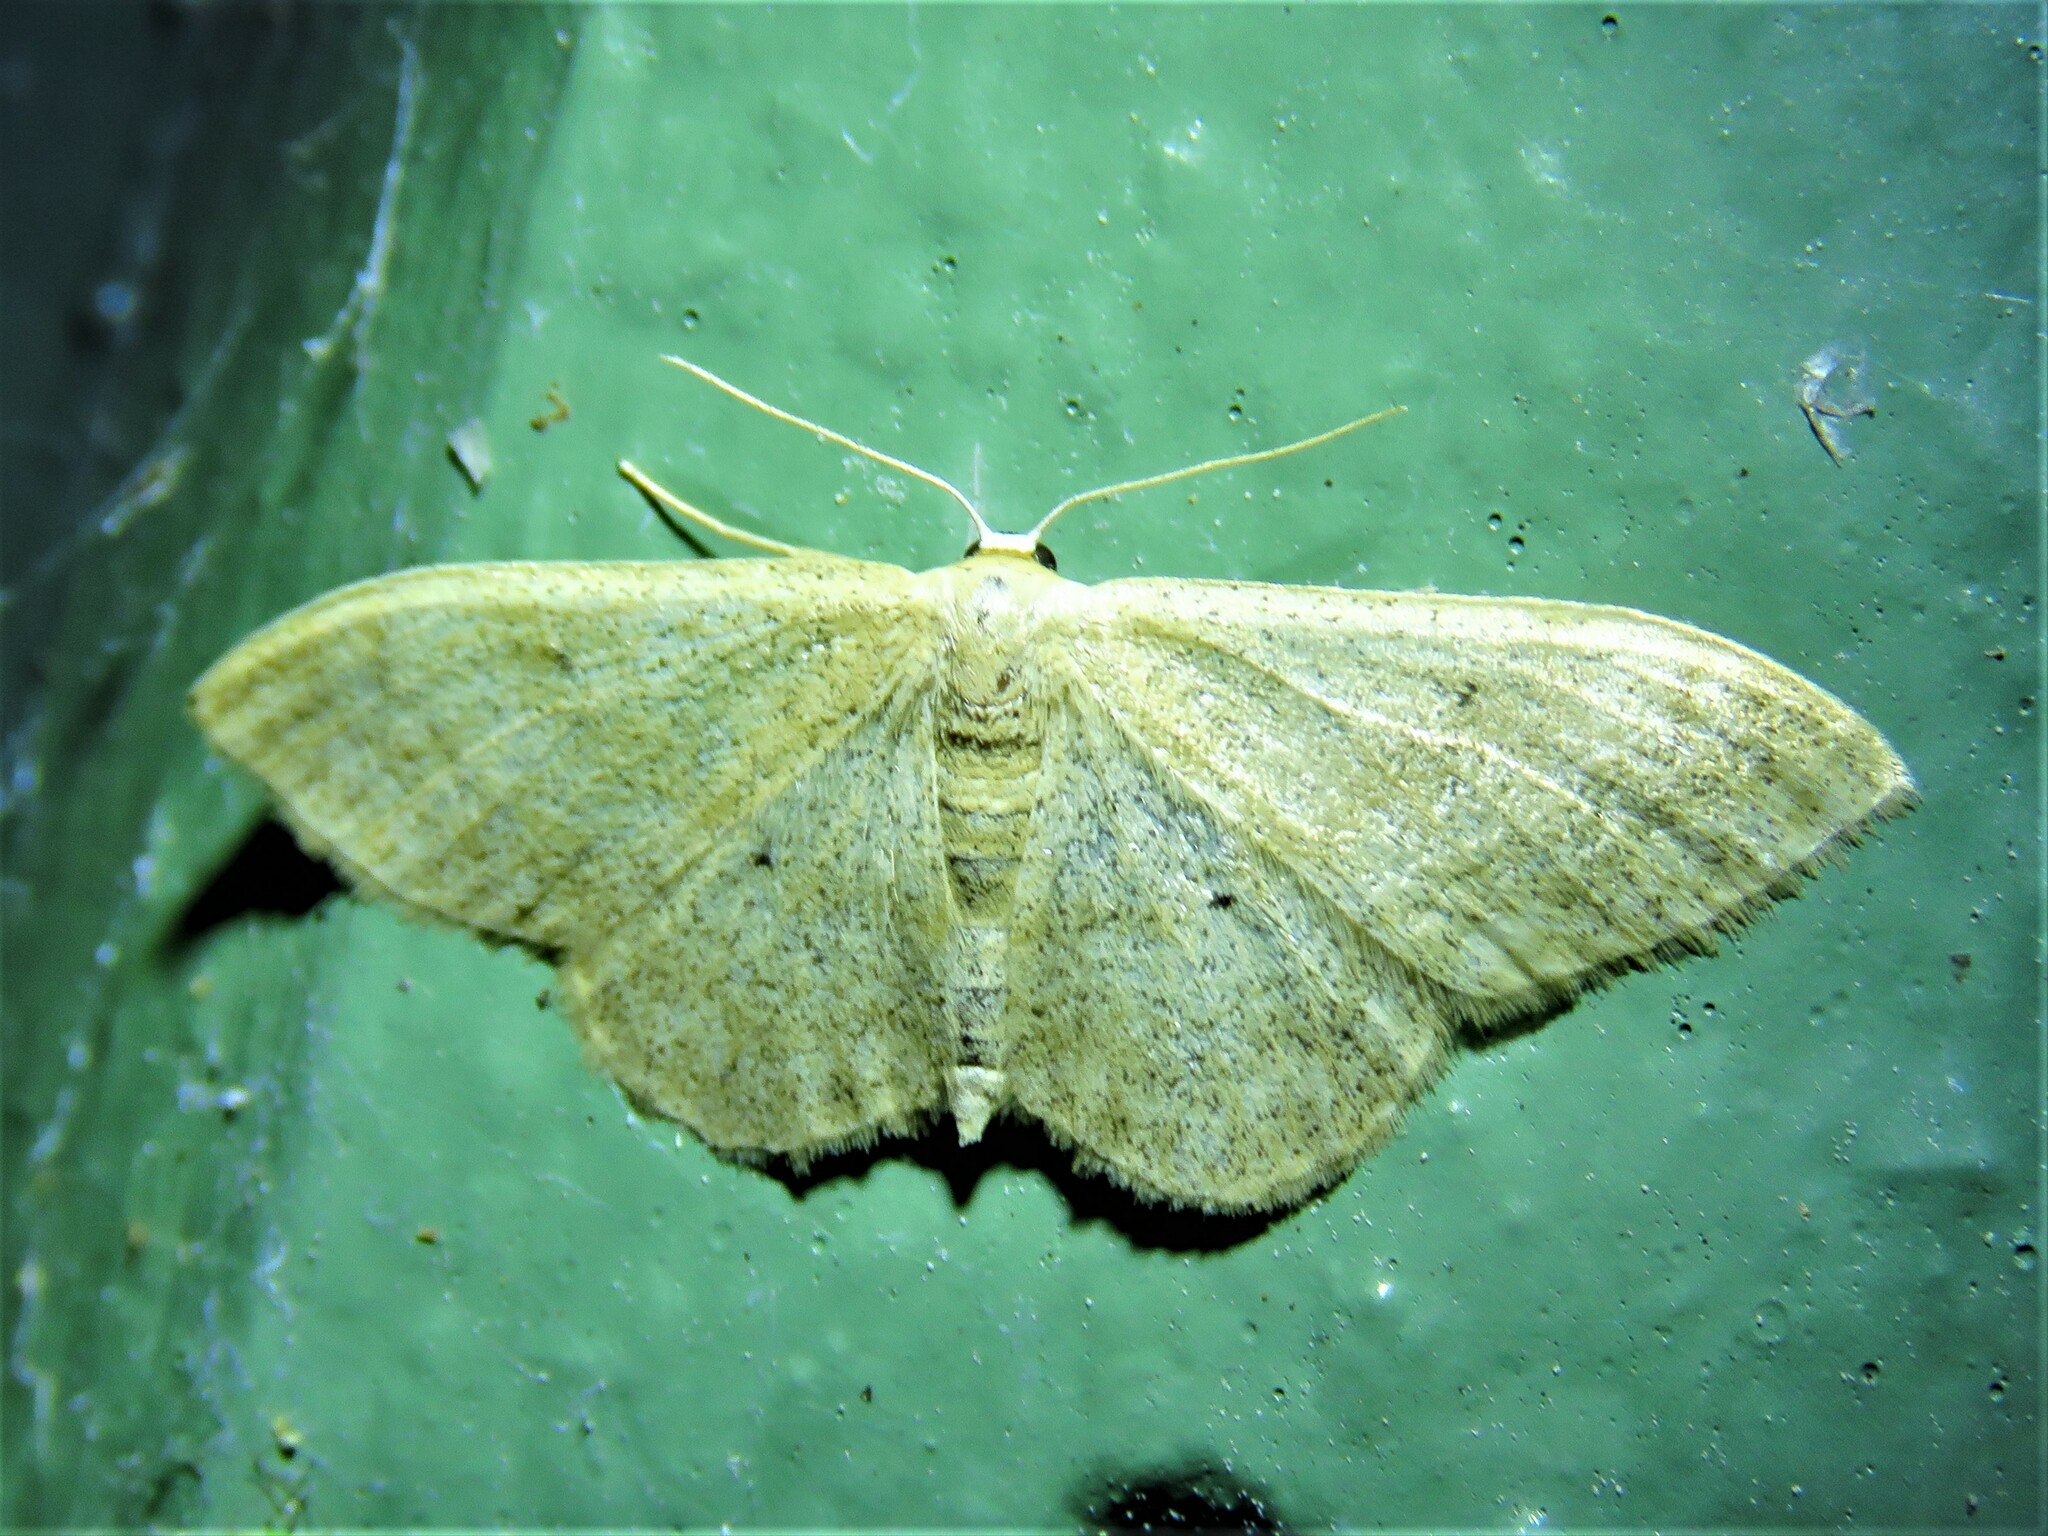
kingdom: Animalia
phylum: Arthropoda
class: Insecta
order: Lepidoptera
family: Geometridae
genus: Scopula
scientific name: Scopula incanata
